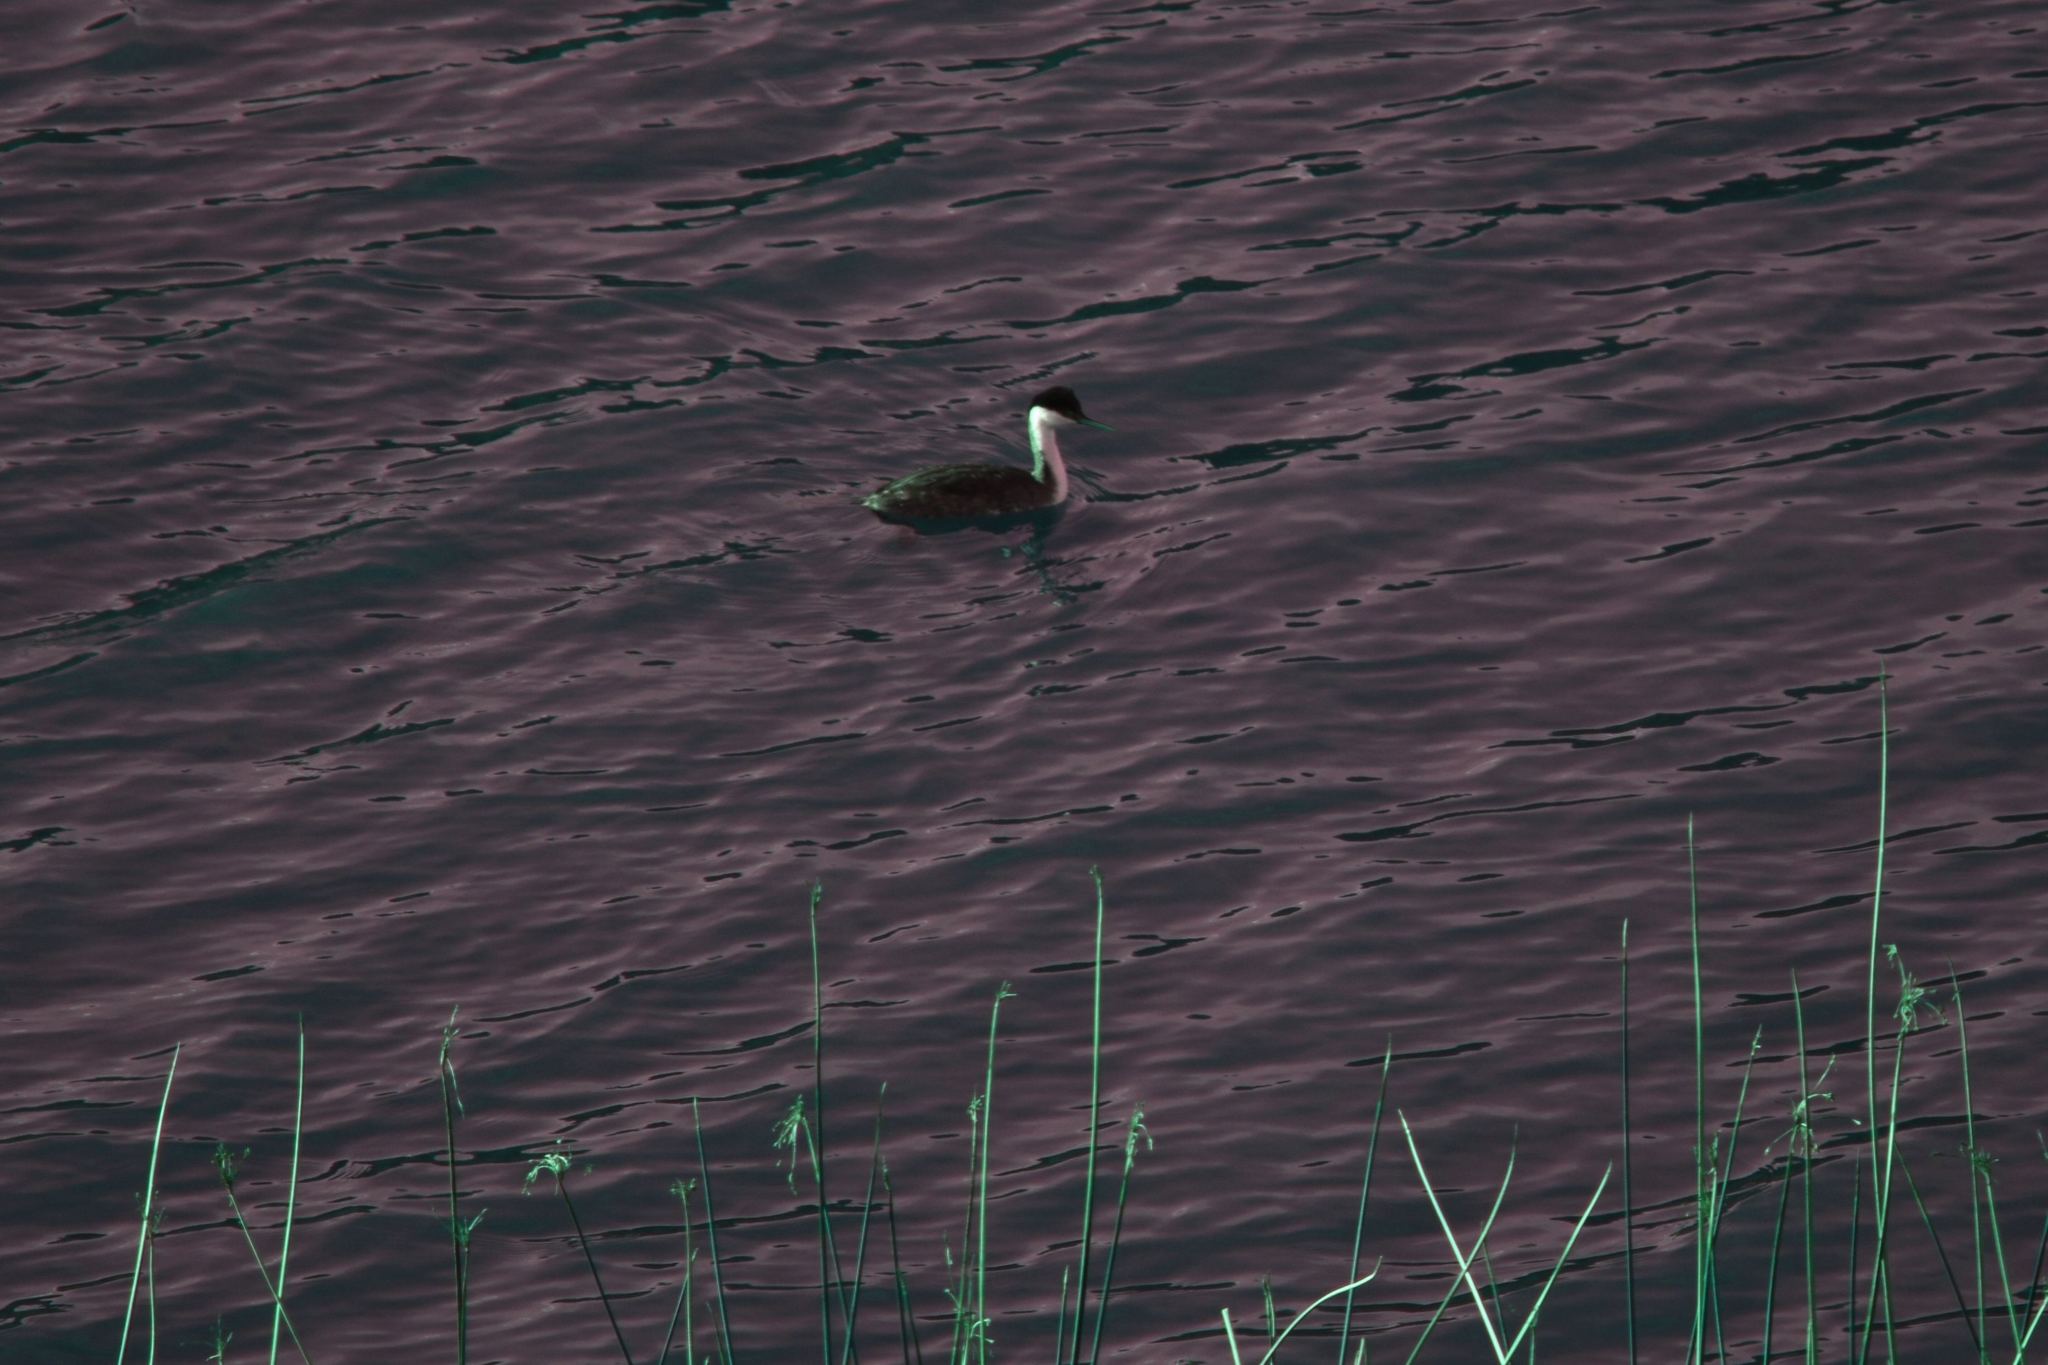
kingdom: Animalia
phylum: Chordata
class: Aves
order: Podicipediformes
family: Podicipedidae
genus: Aechmophorus
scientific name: Aechmophorus occidentalis
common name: Western grebe
